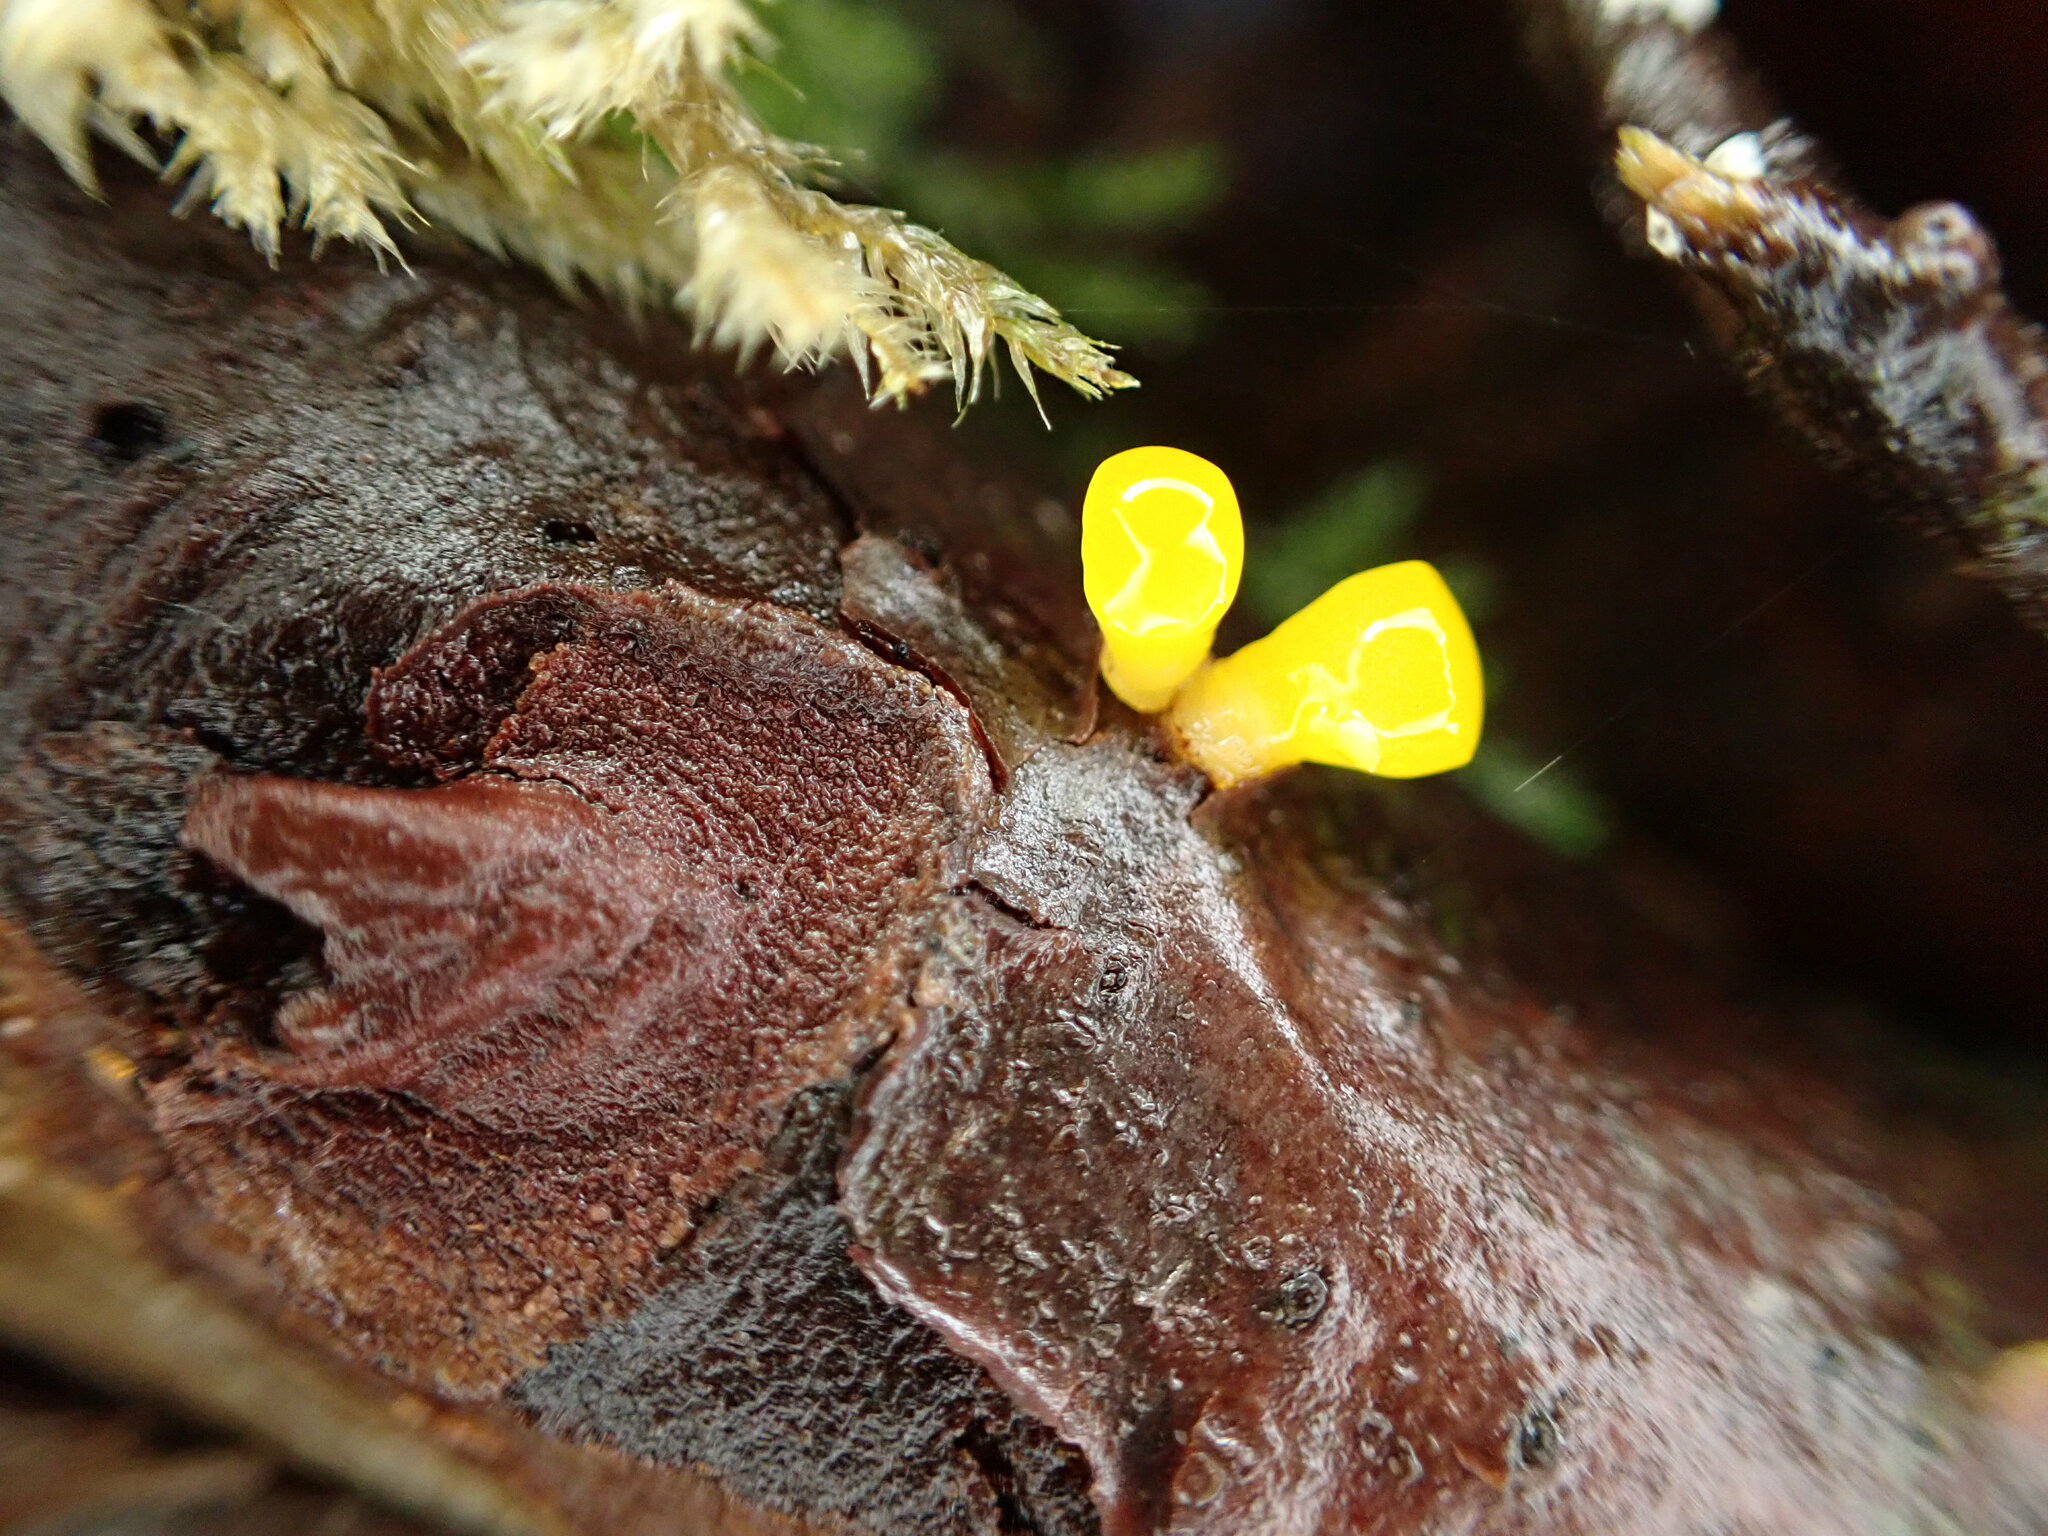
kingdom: Fungi
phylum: Basidiomycota
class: Dacrymycetes
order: Dacrymycetales
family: Dacrymycetaceae
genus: Guepiniopsis
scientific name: Guepiniopsis alpina
